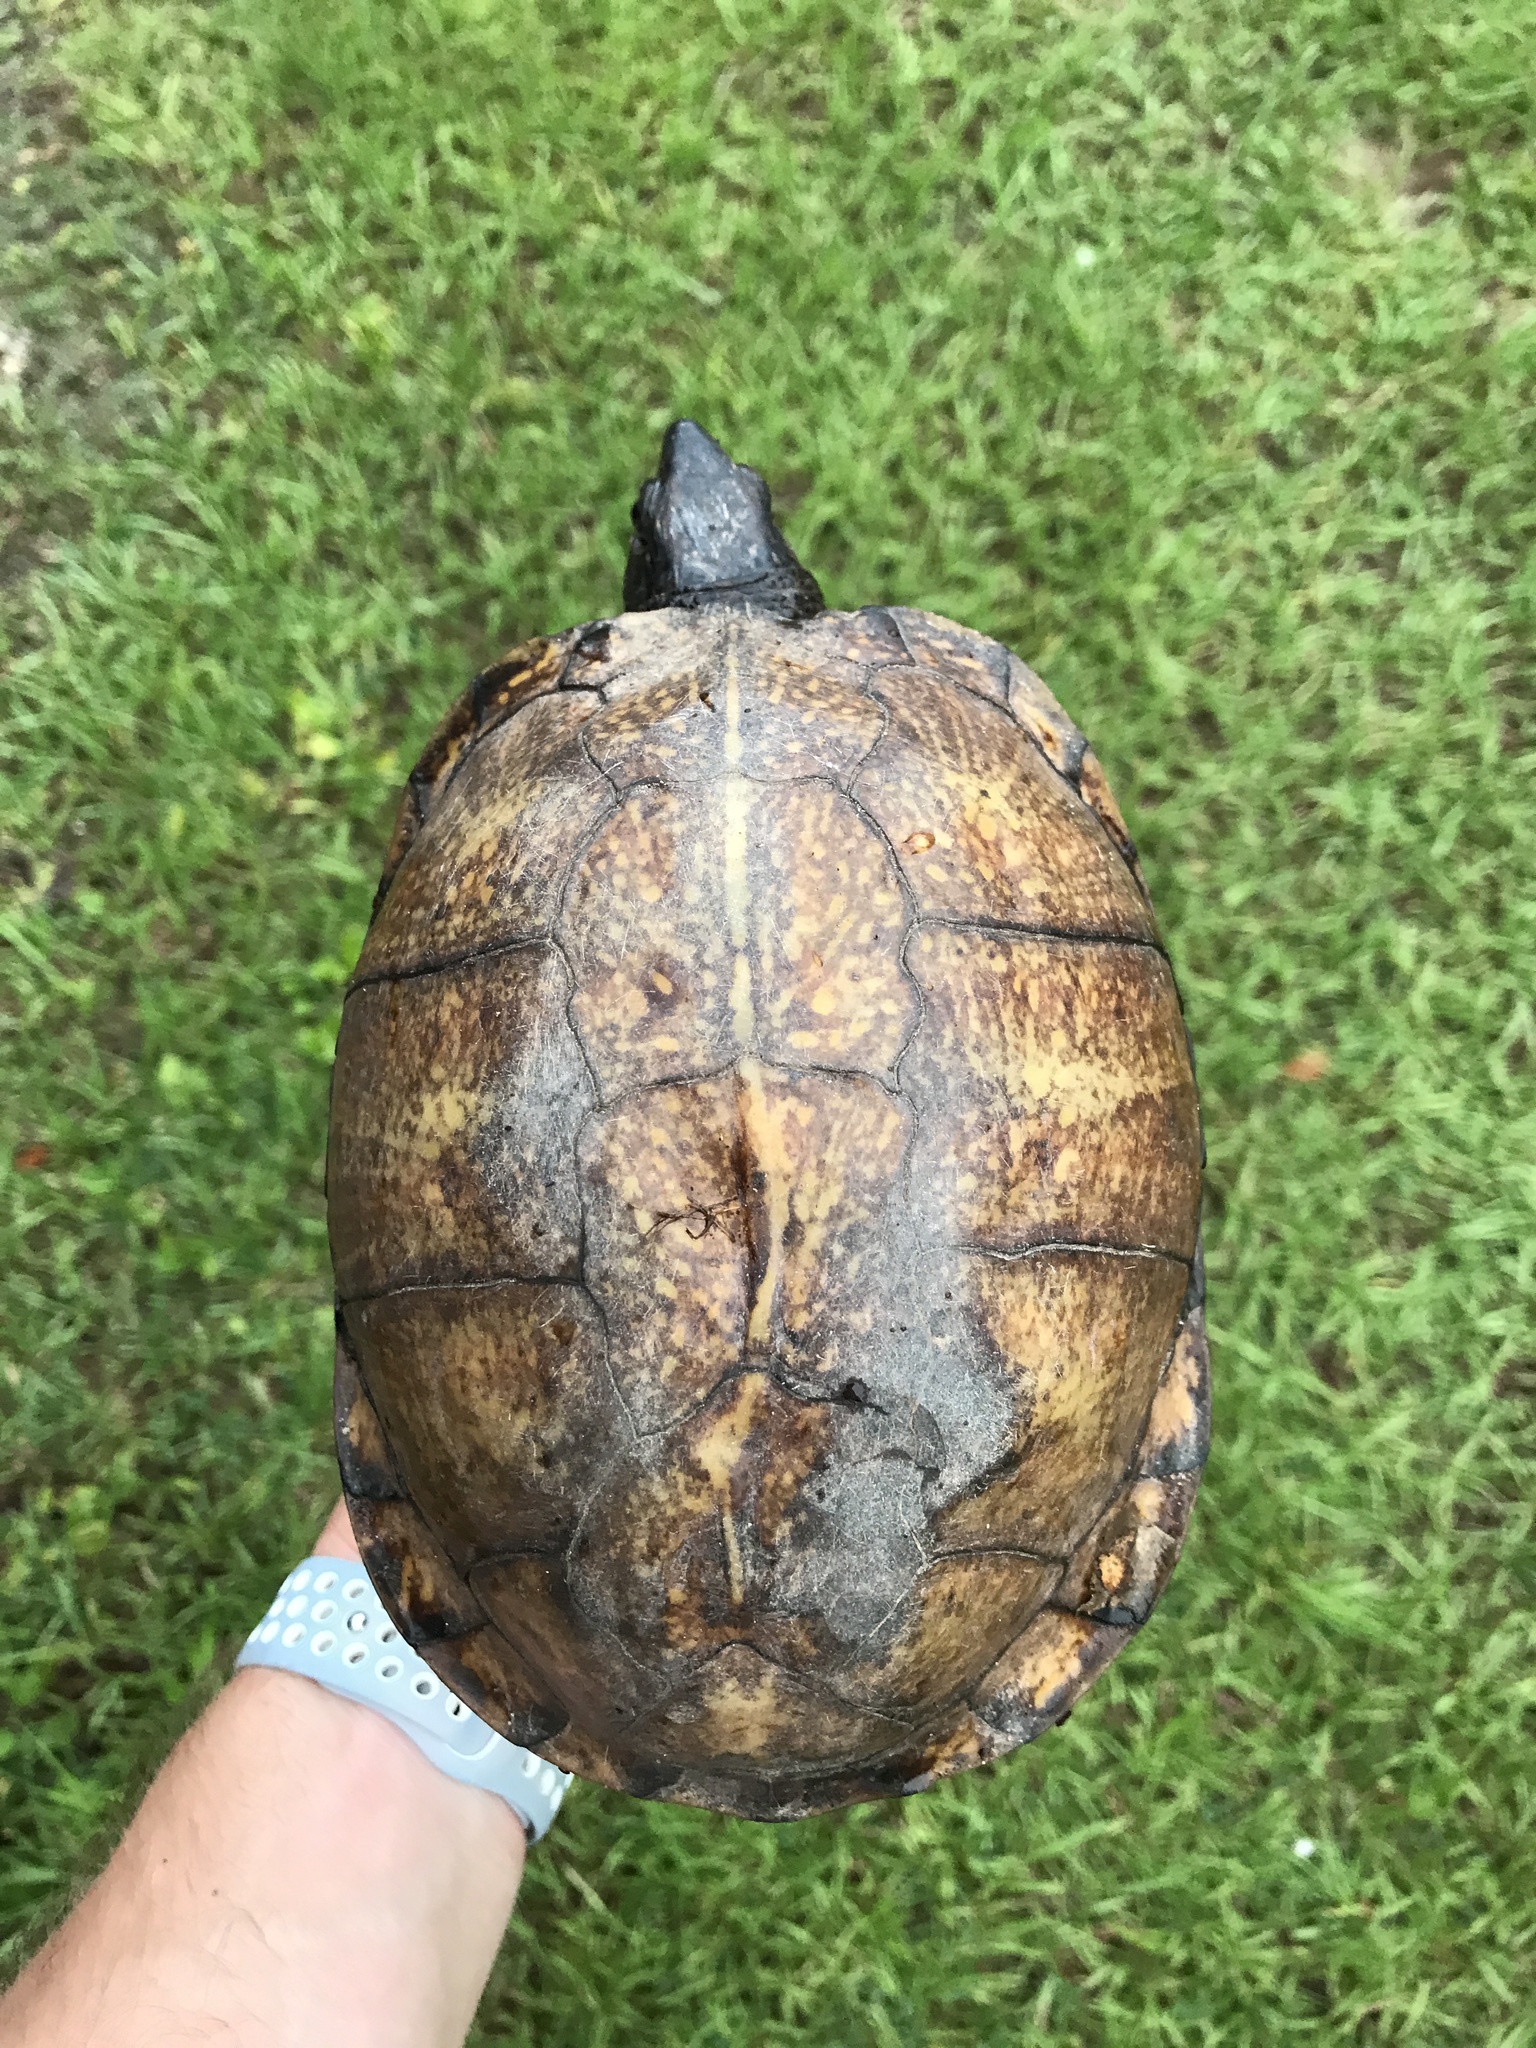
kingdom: Animalia
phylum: Chordata
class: Testudines
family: Emydidae
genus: Terrapene
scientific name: Terrapene carolina
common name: Common box turtle
